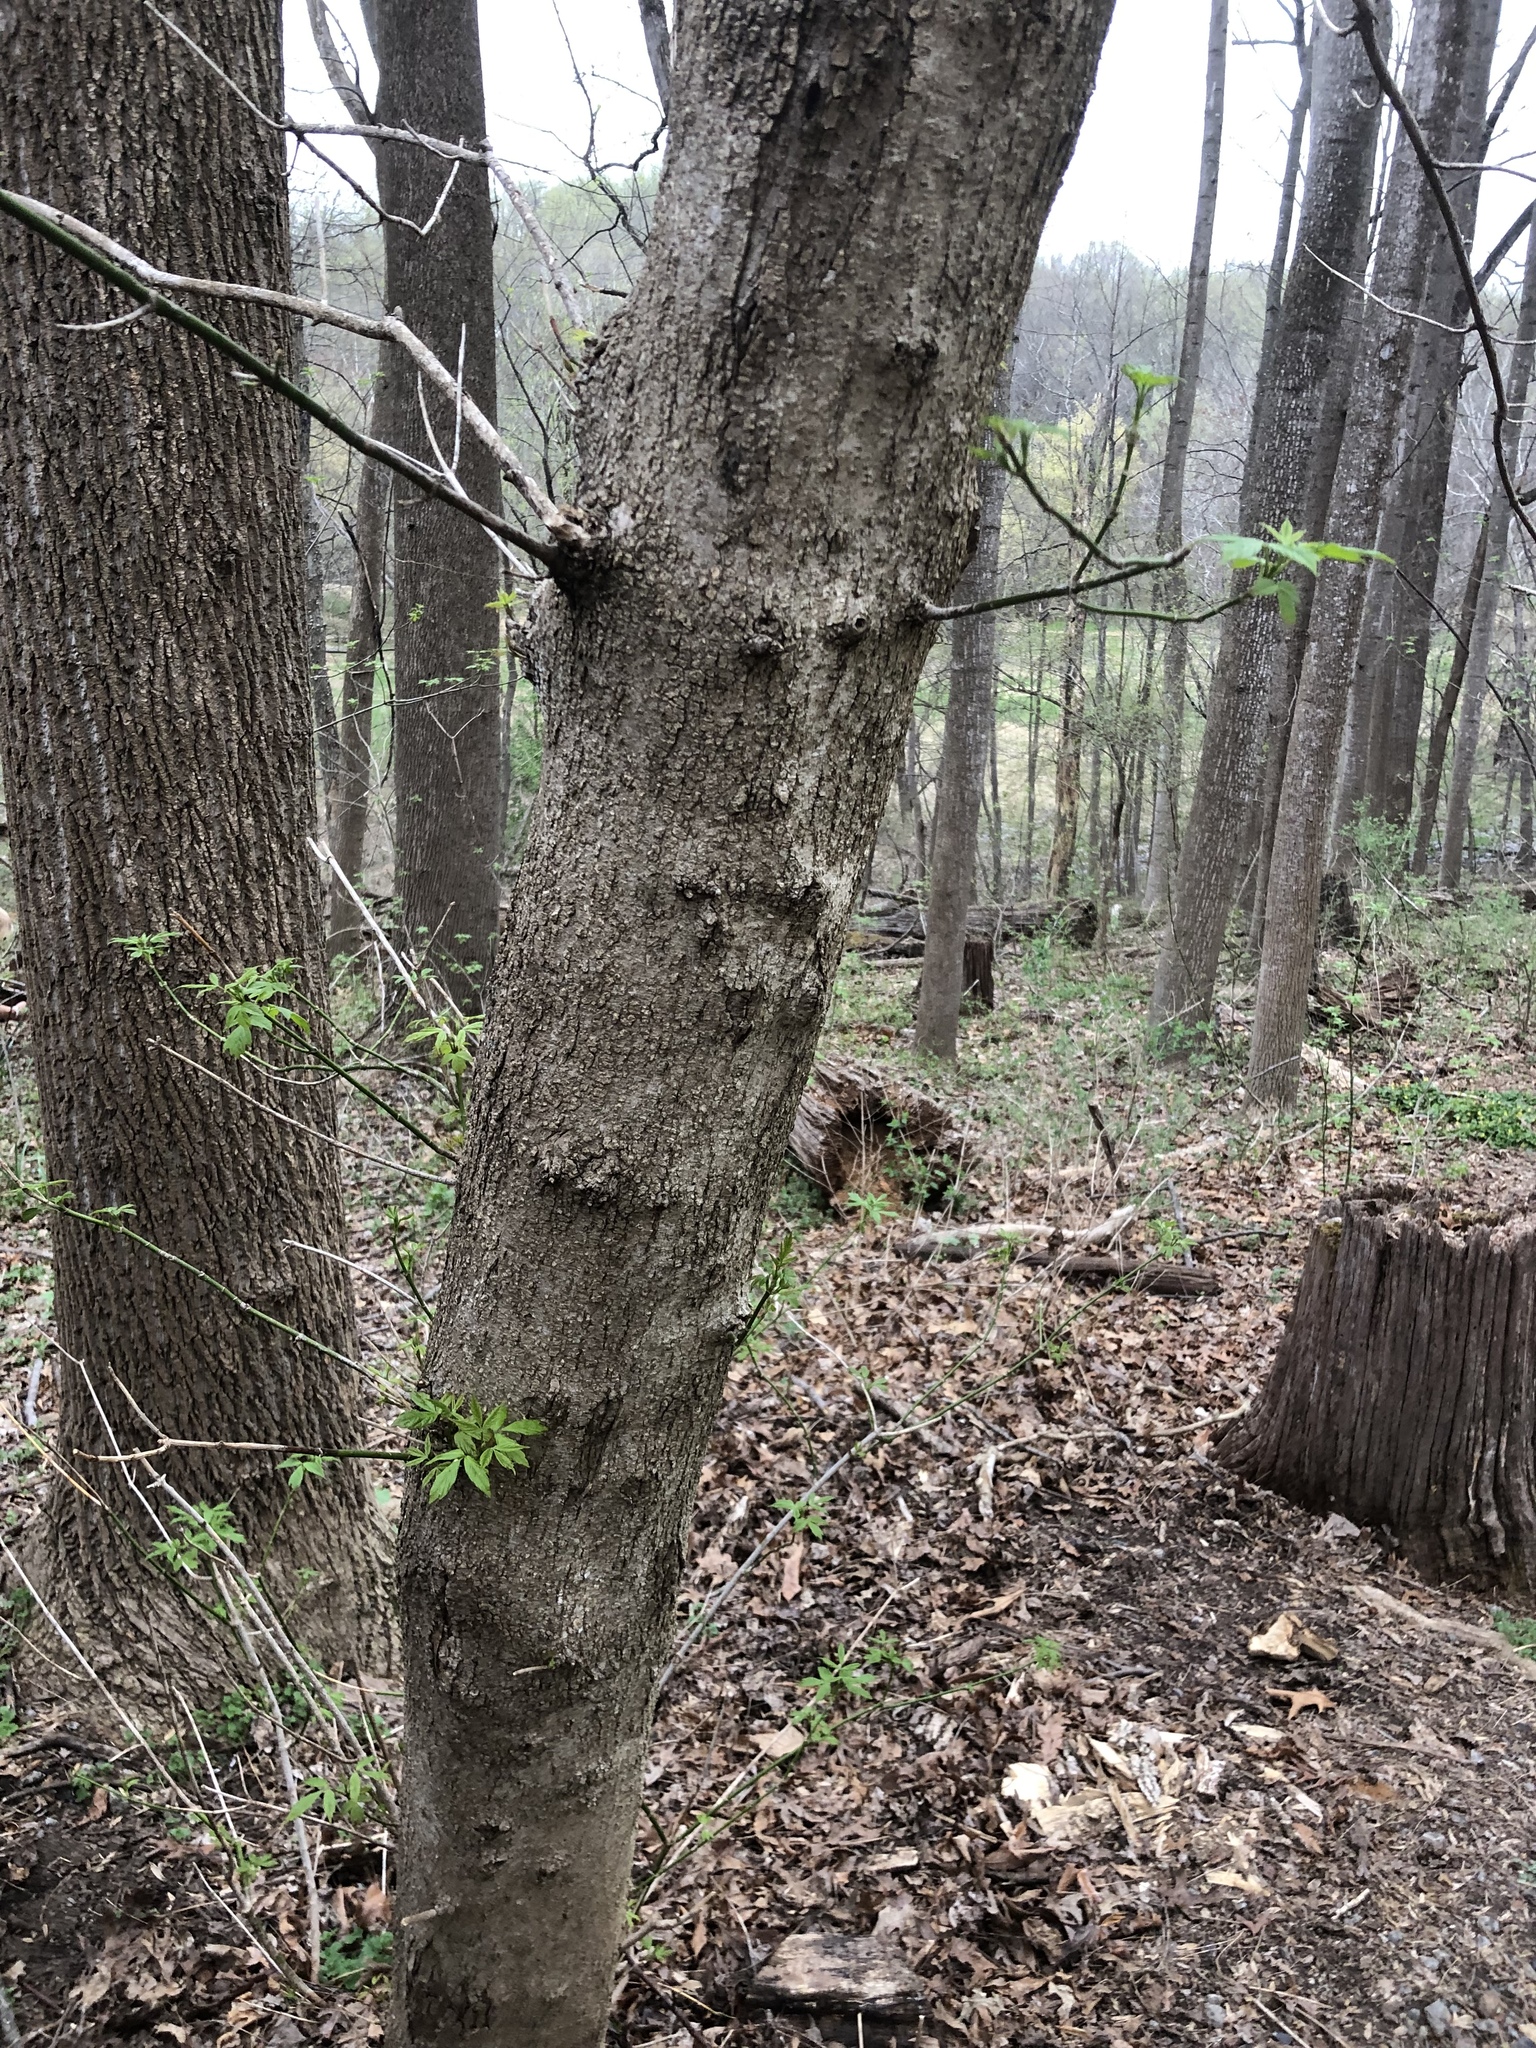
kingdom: Plantae
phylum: Tracheophyta
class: Magnoliopsida
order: Sapindales
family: Sapindaceae
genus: Acer
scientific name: Acer negundo
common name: Ashleaf maple
